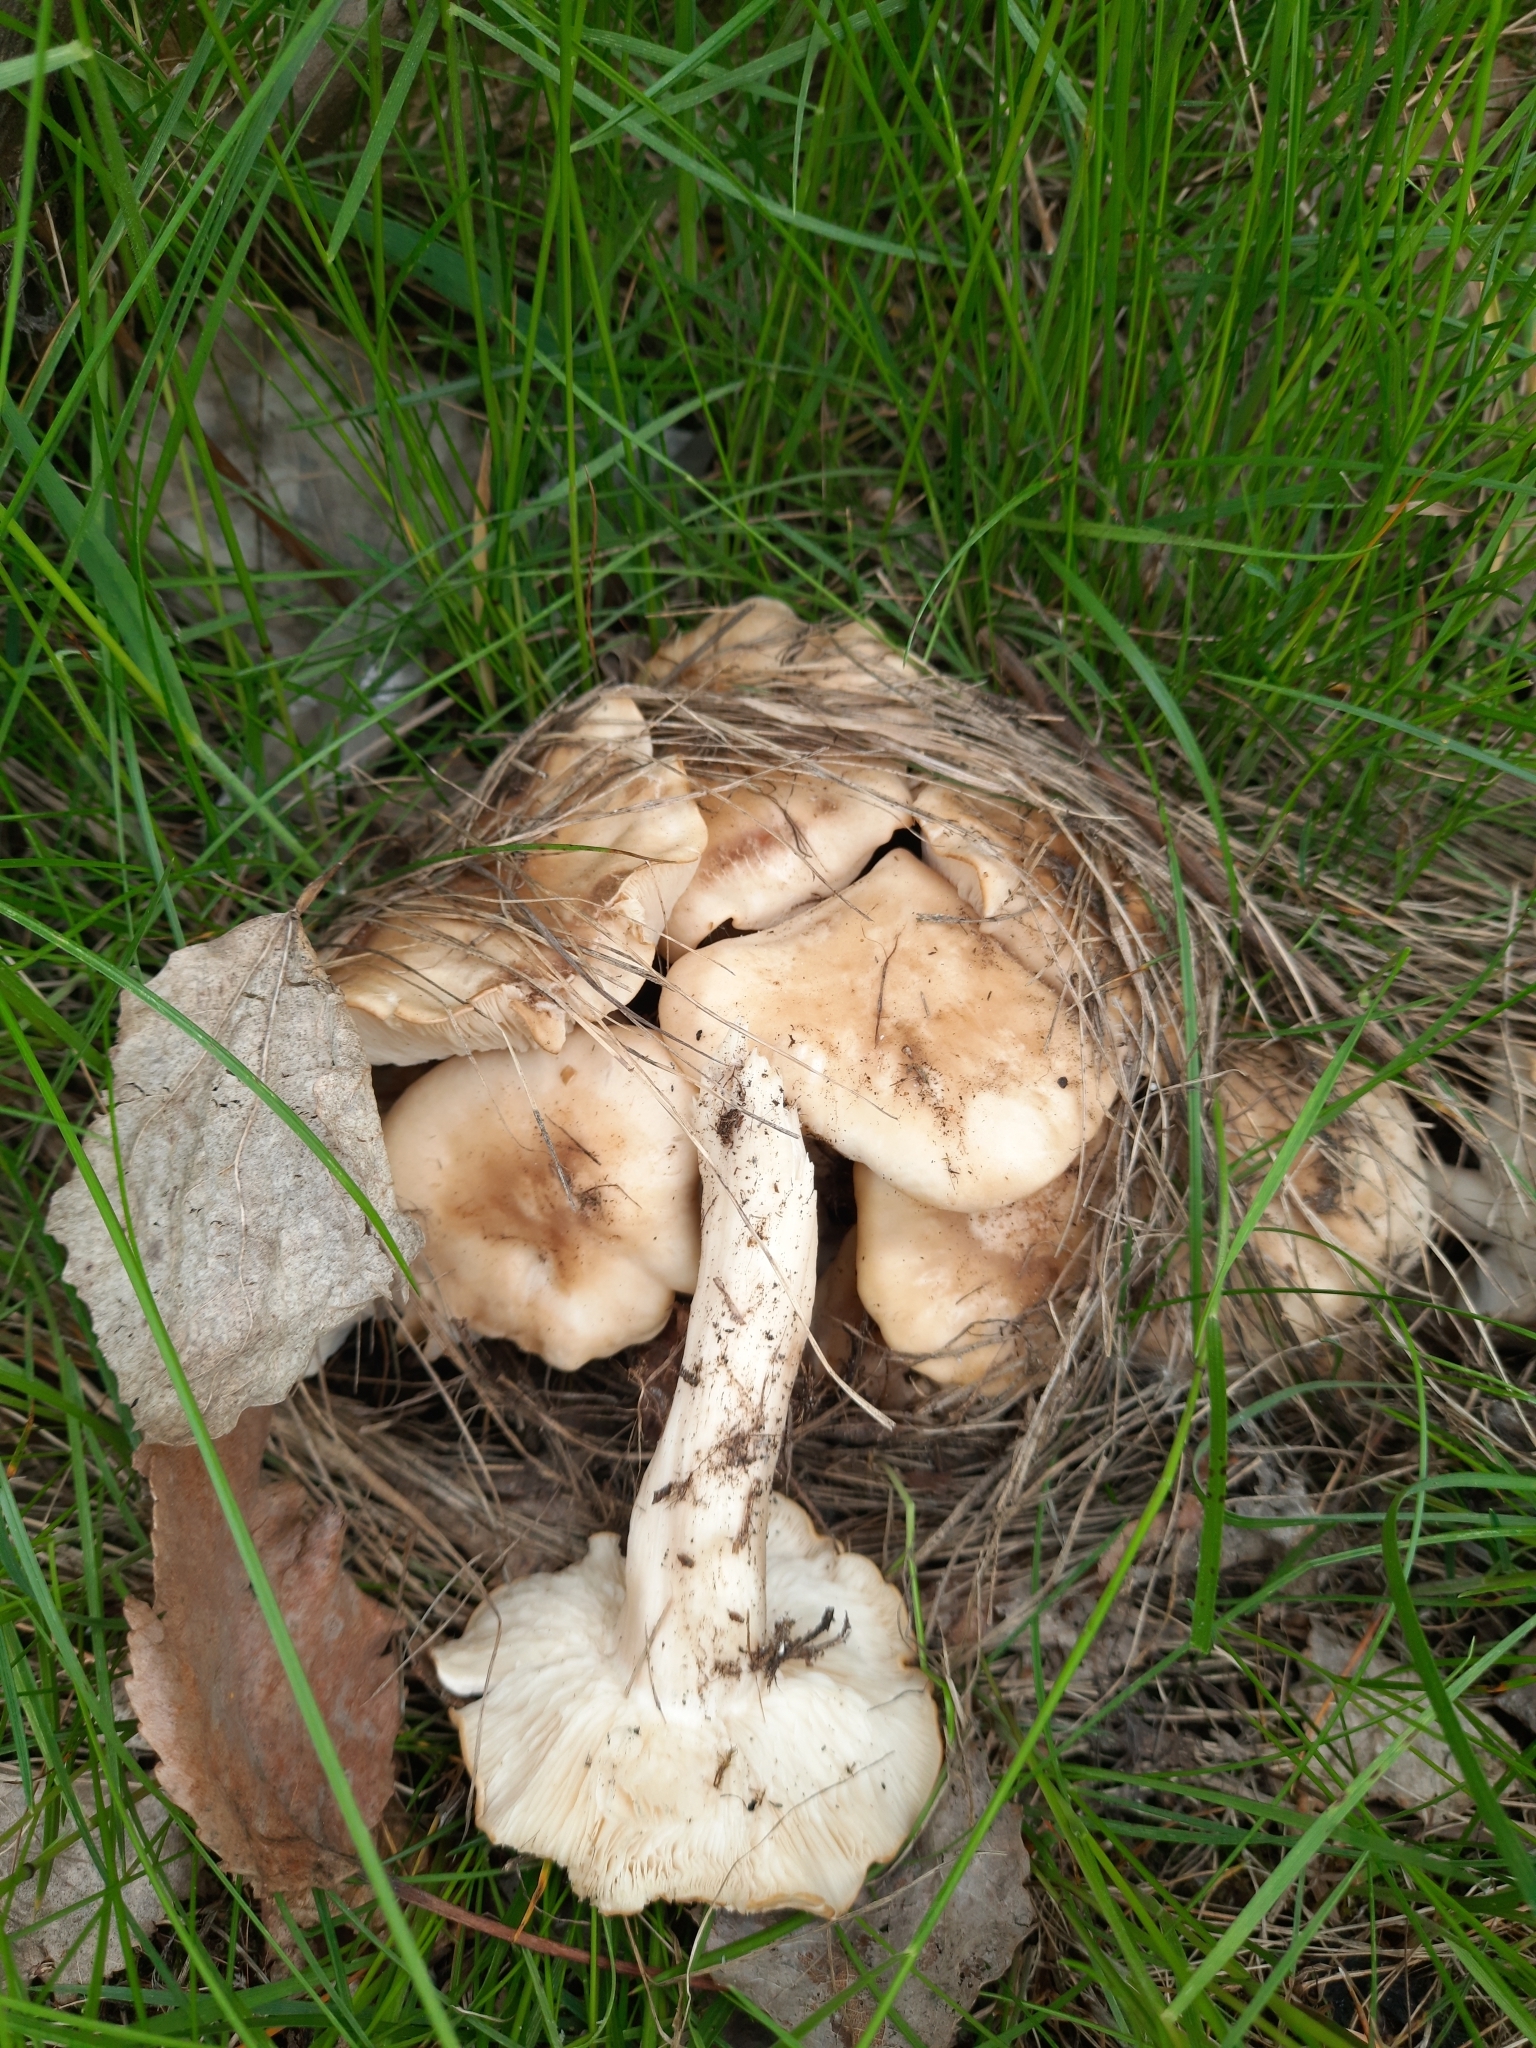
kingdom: Fungi
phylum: Basidiomycota
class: Agaricomycetes
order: Agaricales
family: Lyophyllaceae
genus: Lyophyllum
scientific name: Lyophyllum decastes
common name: Clustered domecap
